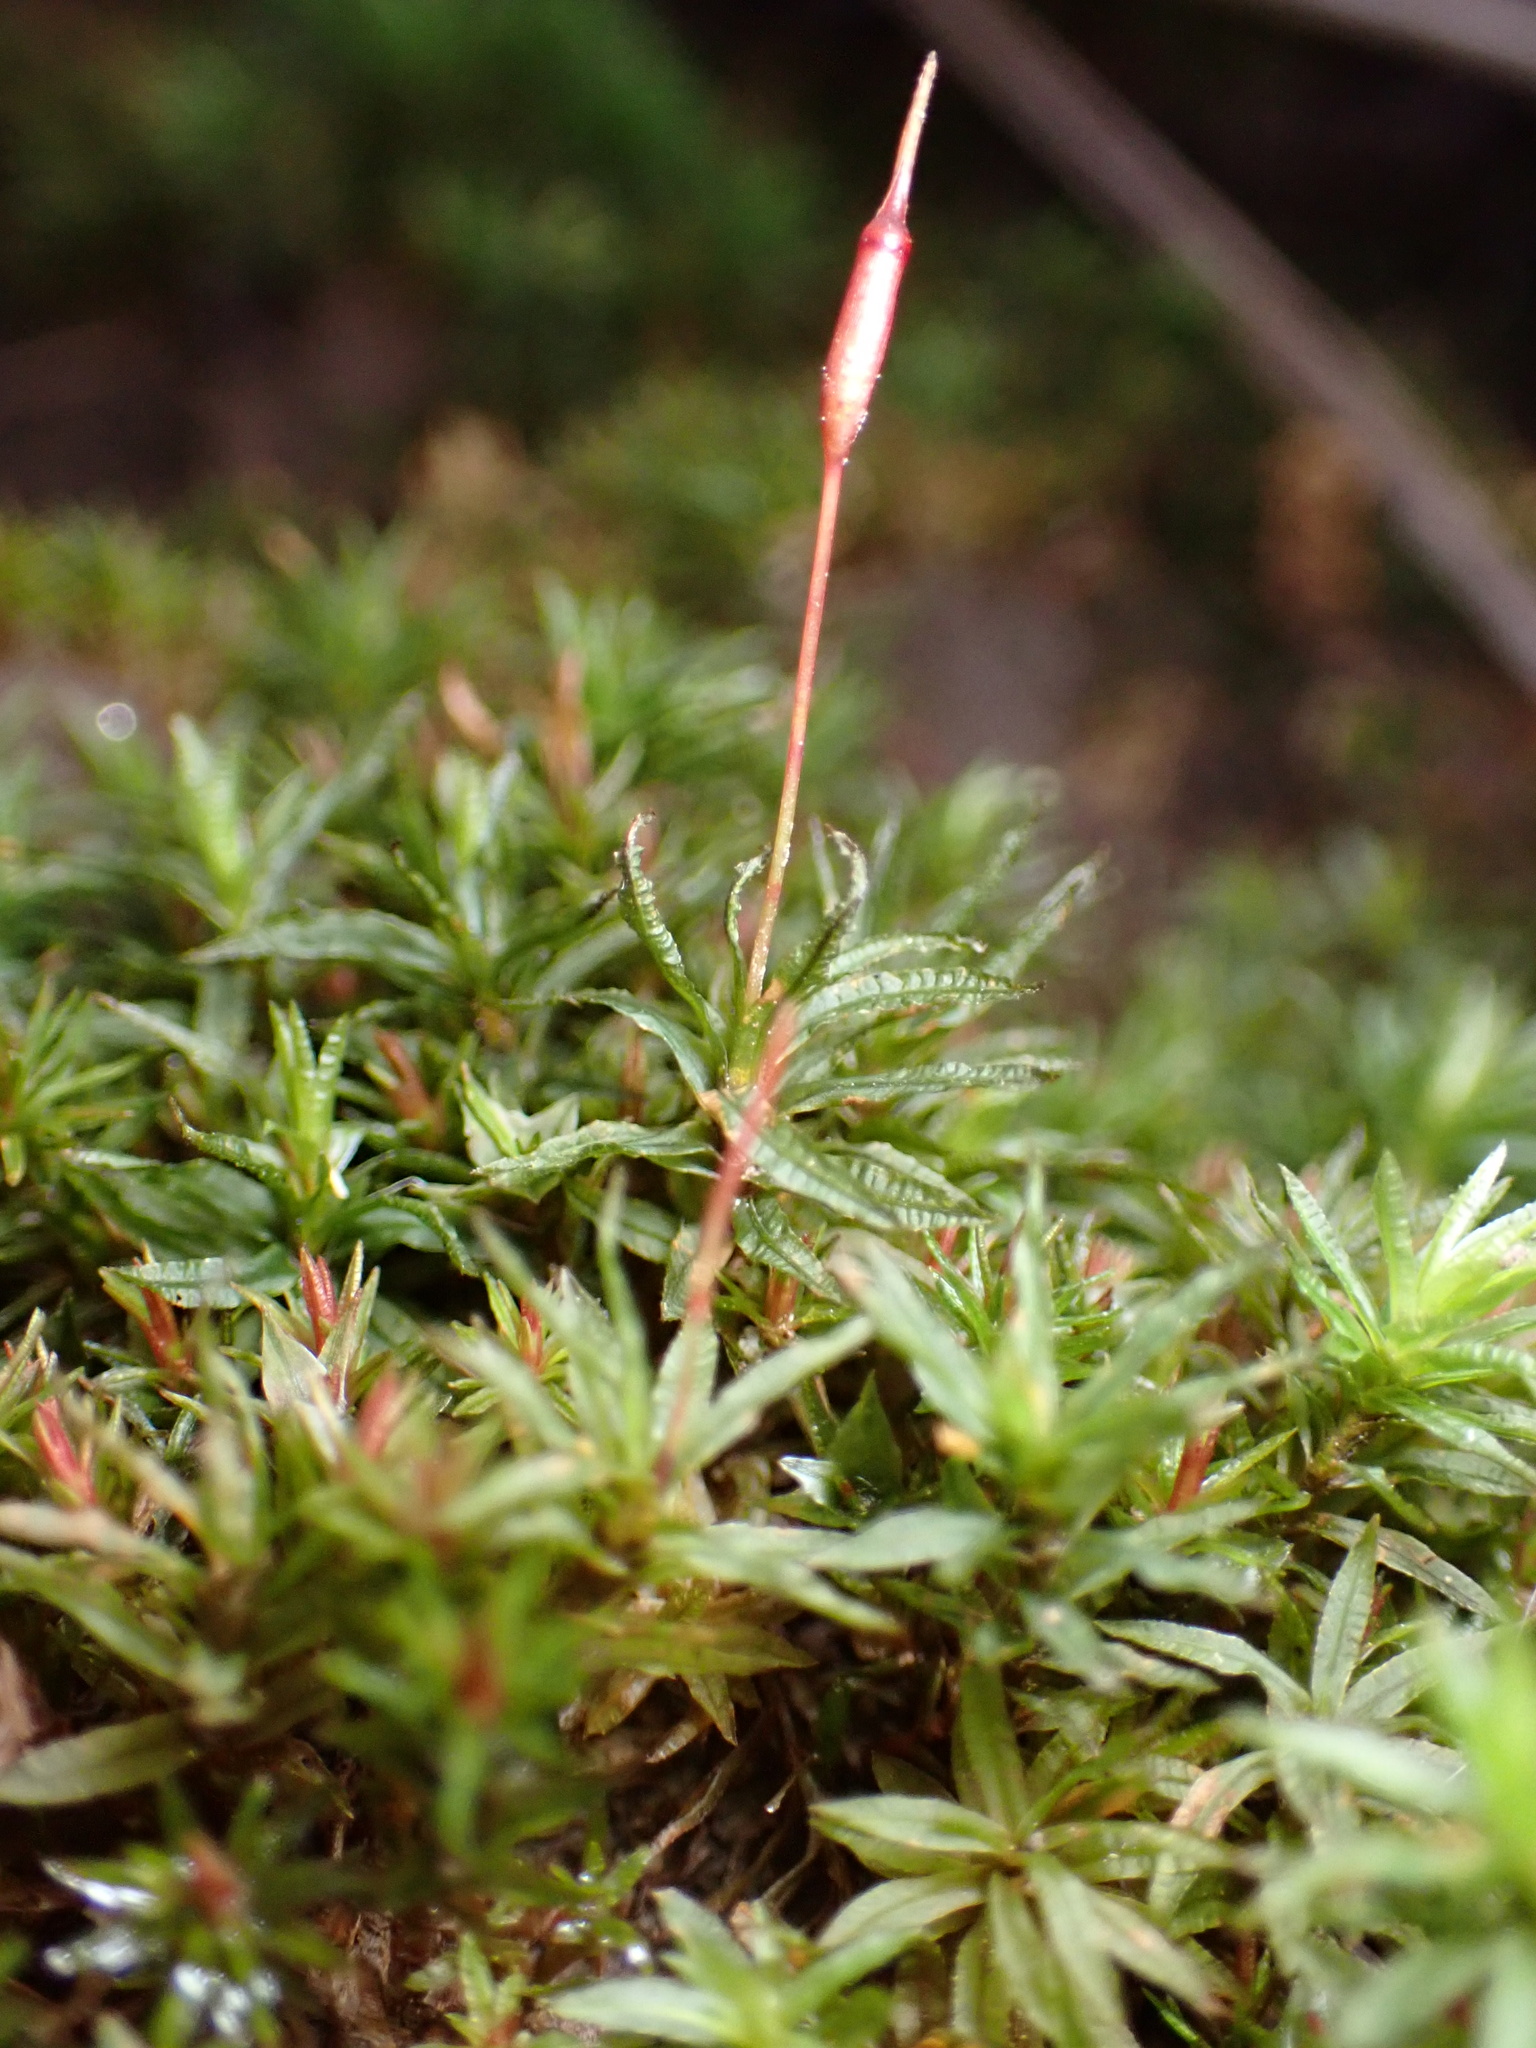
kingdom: Plantae
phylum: Bryophyta
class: Polytrichopsida
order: Polytrichales
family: Polytrichaceae
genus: Atrichum
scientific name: Atrichum undulatum
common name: Common smoothcap
